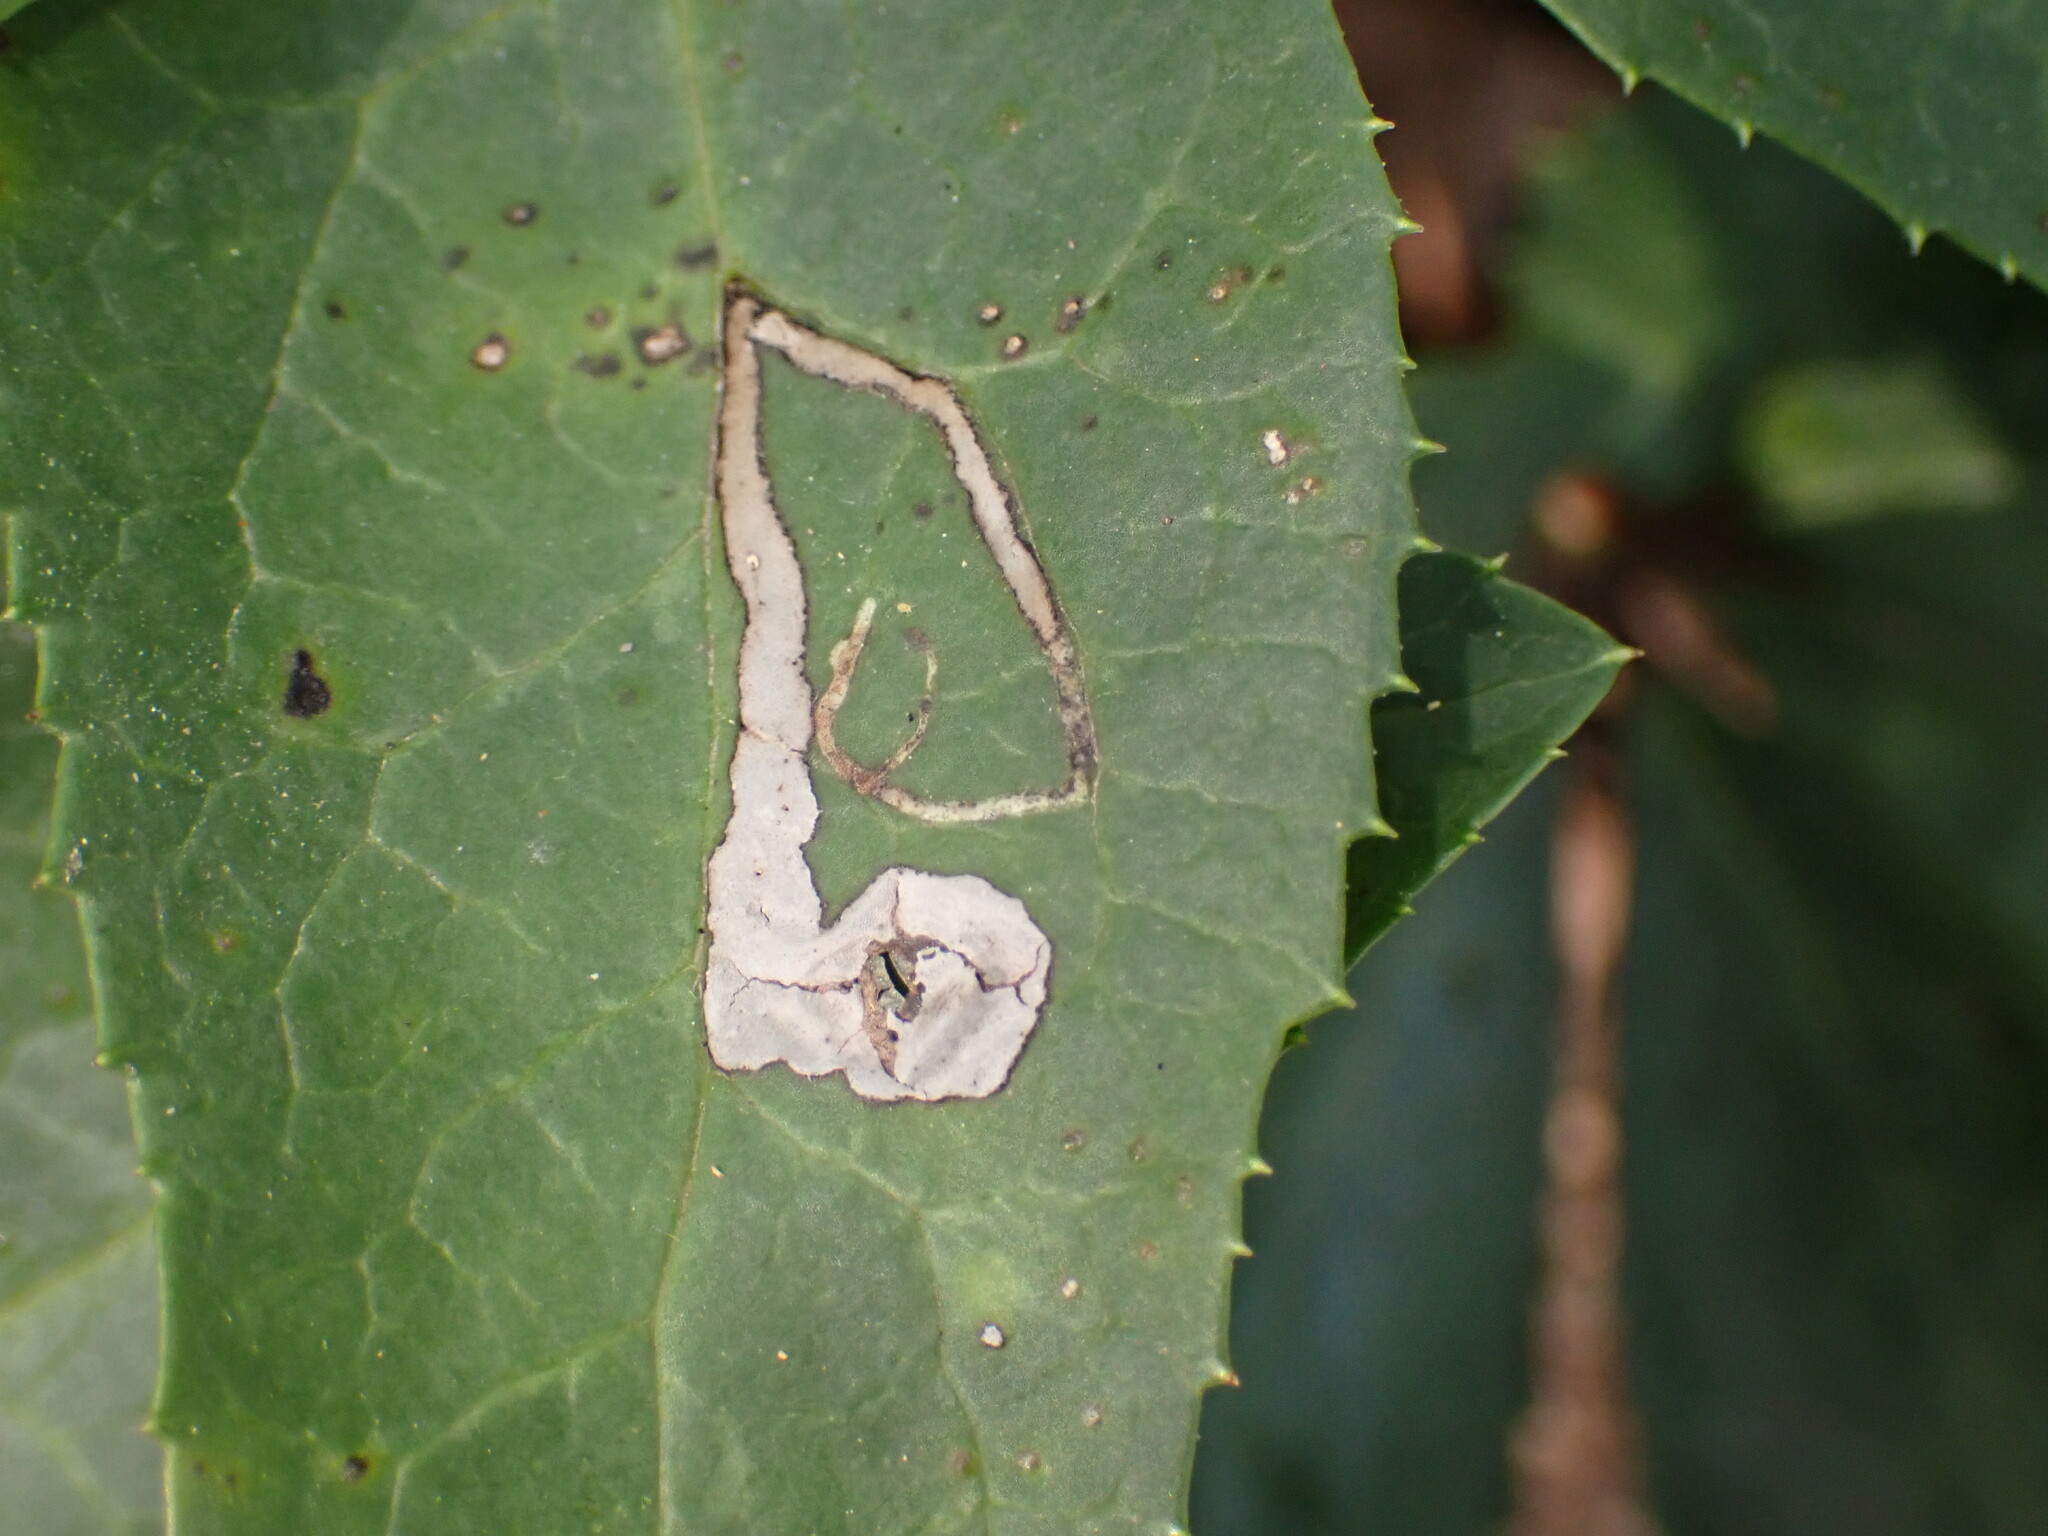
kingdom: Animalia
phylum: Arthropoda
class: Insecta
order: Diptera
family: Agromyzidae
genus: Phytomyza
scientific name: Phytomyza hellebori
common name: Fly
